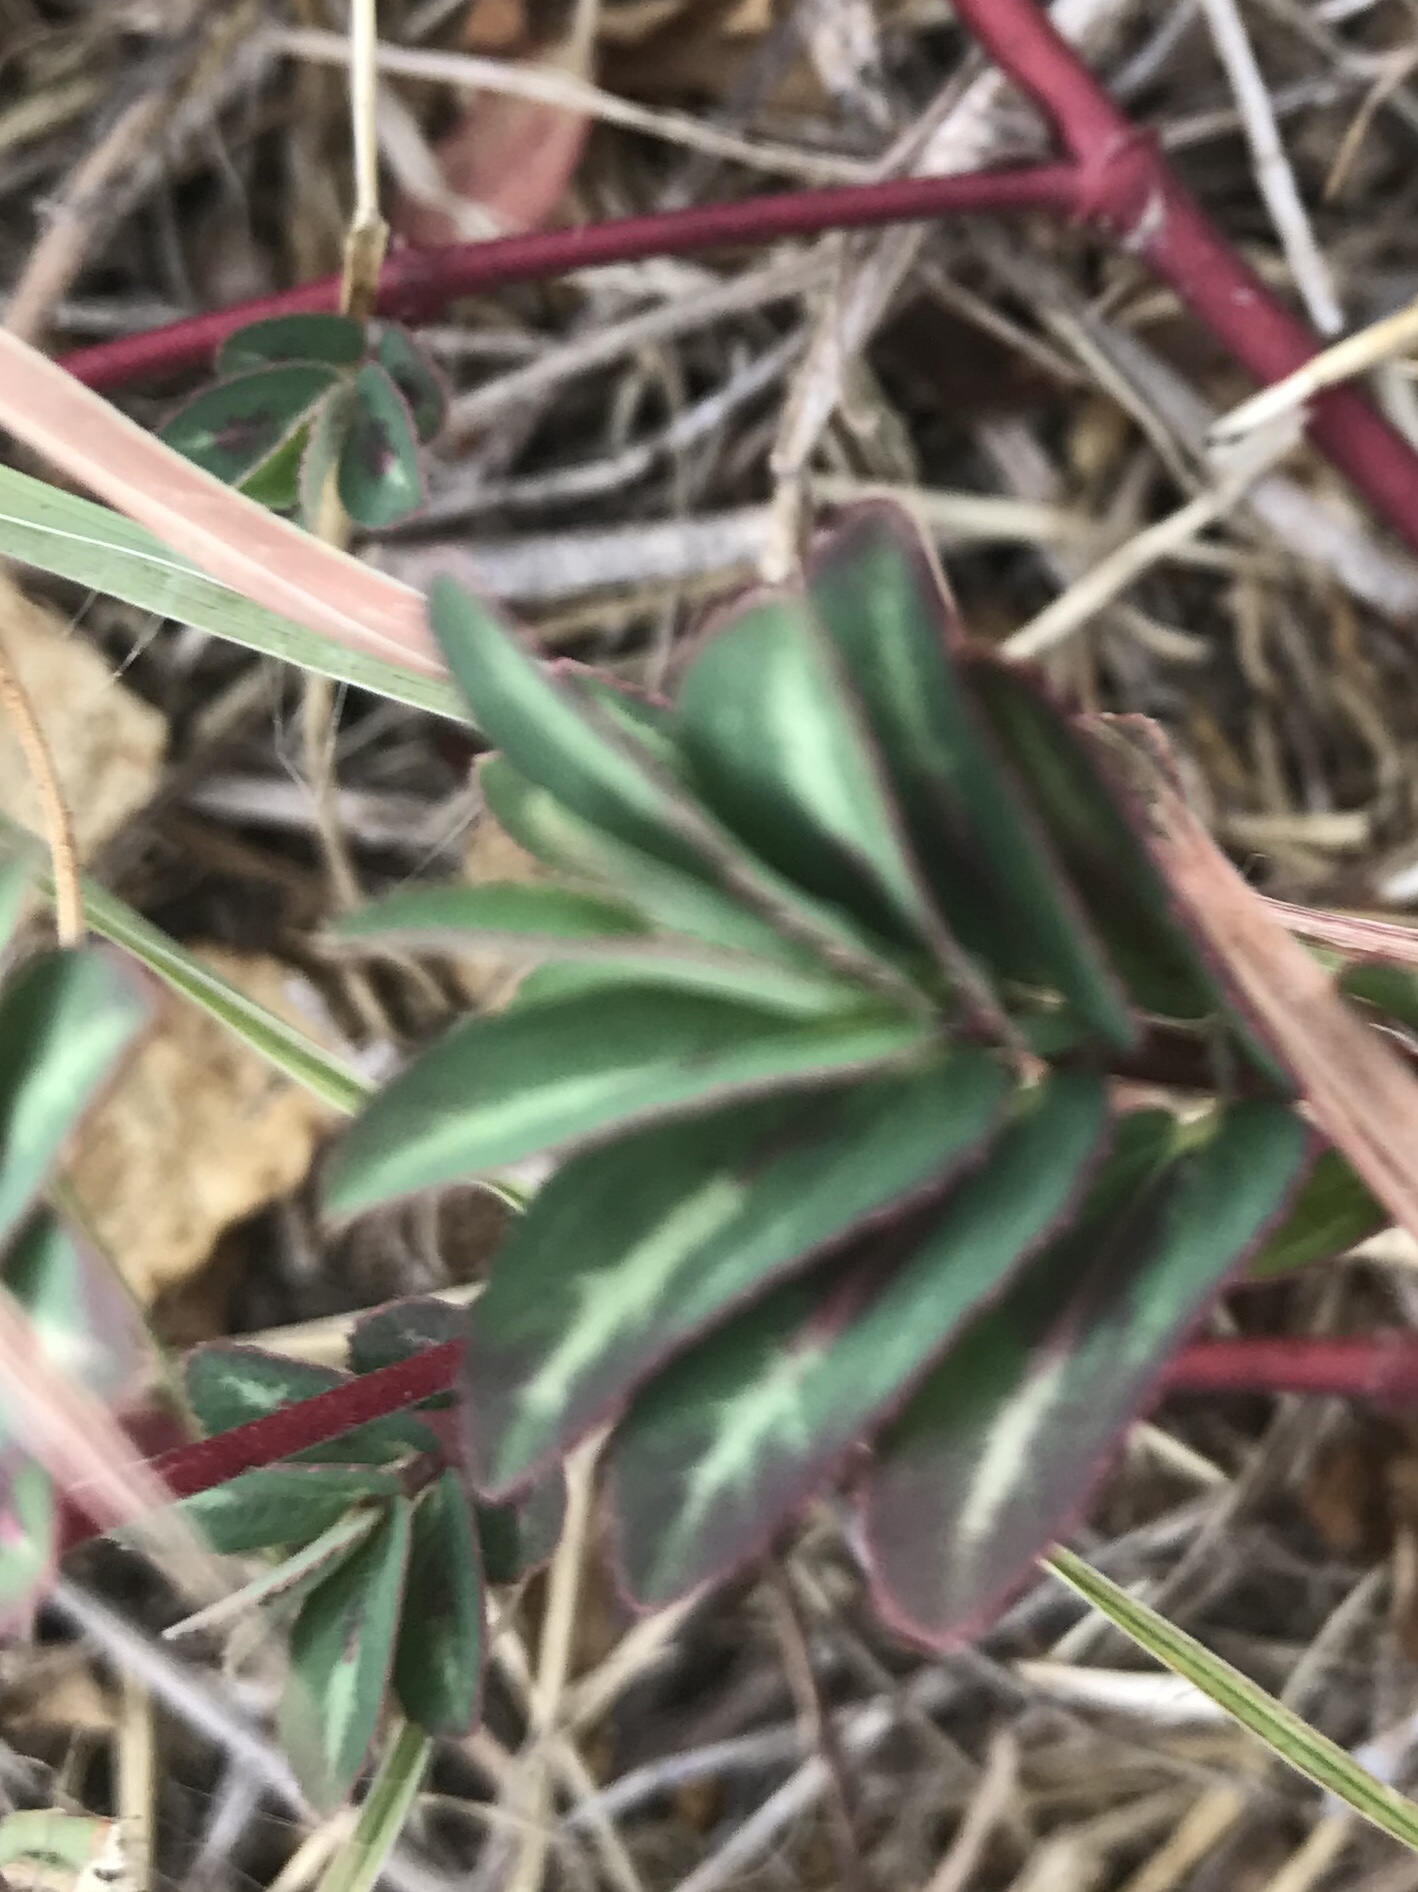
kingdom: Plantae
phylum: Tracheophyta
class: Magnoliopsida
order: Malpighiales
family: Euphorbiaceae
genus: Euphorbia
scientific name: Euphorbia nutans
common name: Eyebane
